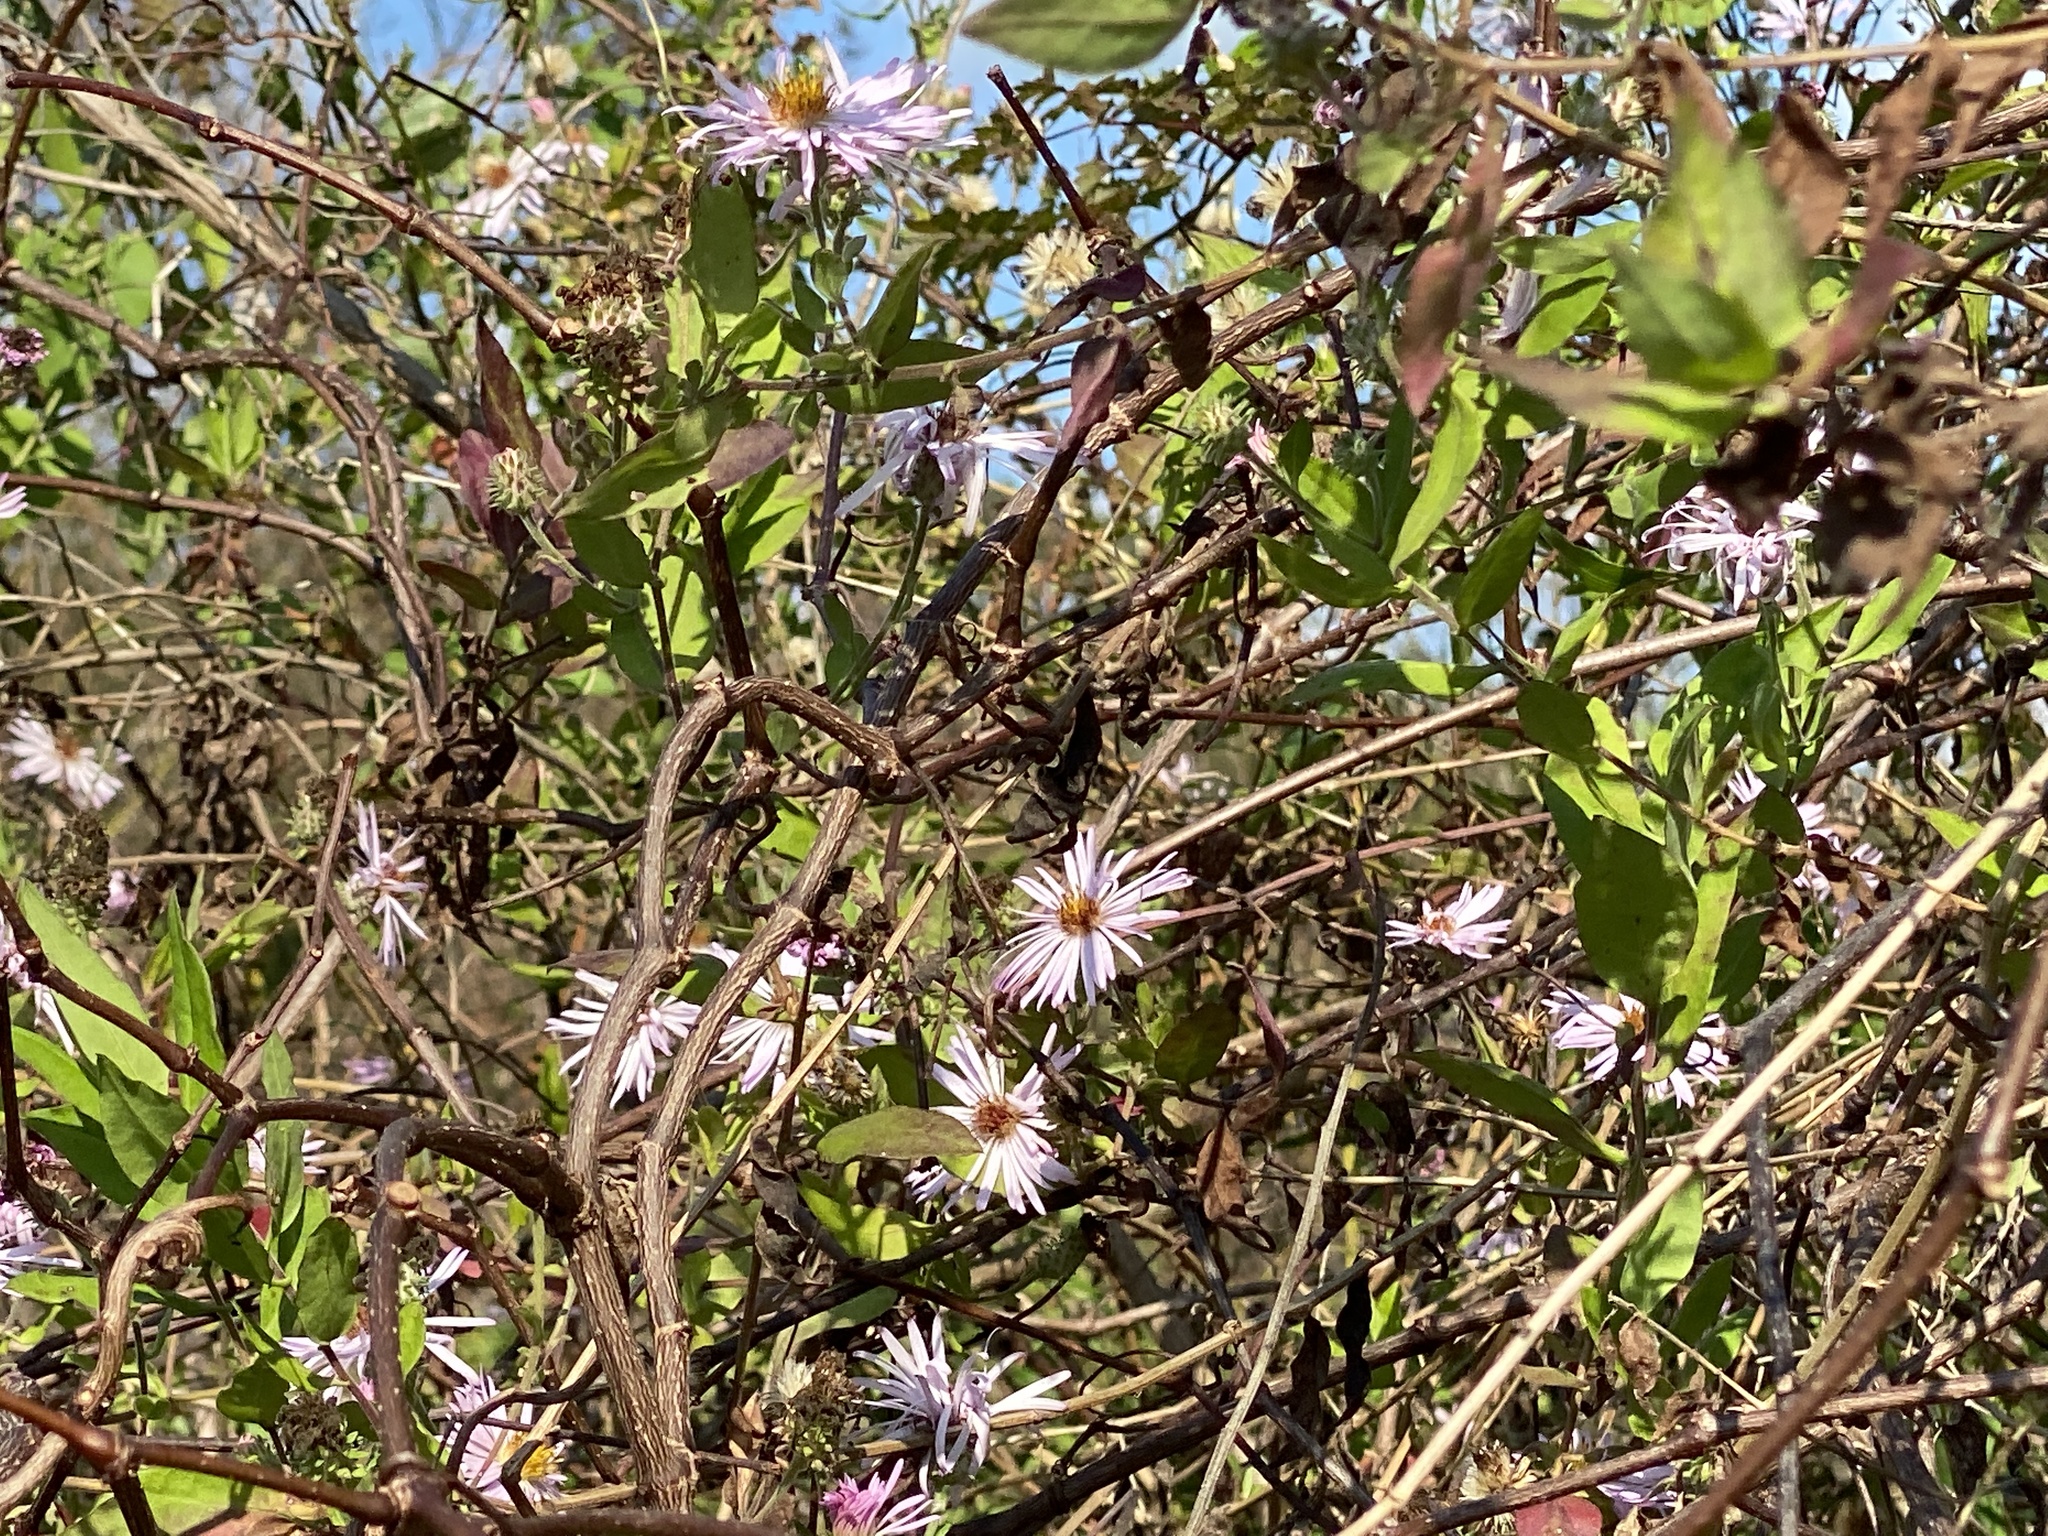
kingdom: Plantae
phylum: Tracheophyta
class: Magnoliopsida
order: Asterales
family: Asteraceae
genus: Ampelaster
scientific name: Ampelaster carolinianus
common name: Climbing aster
